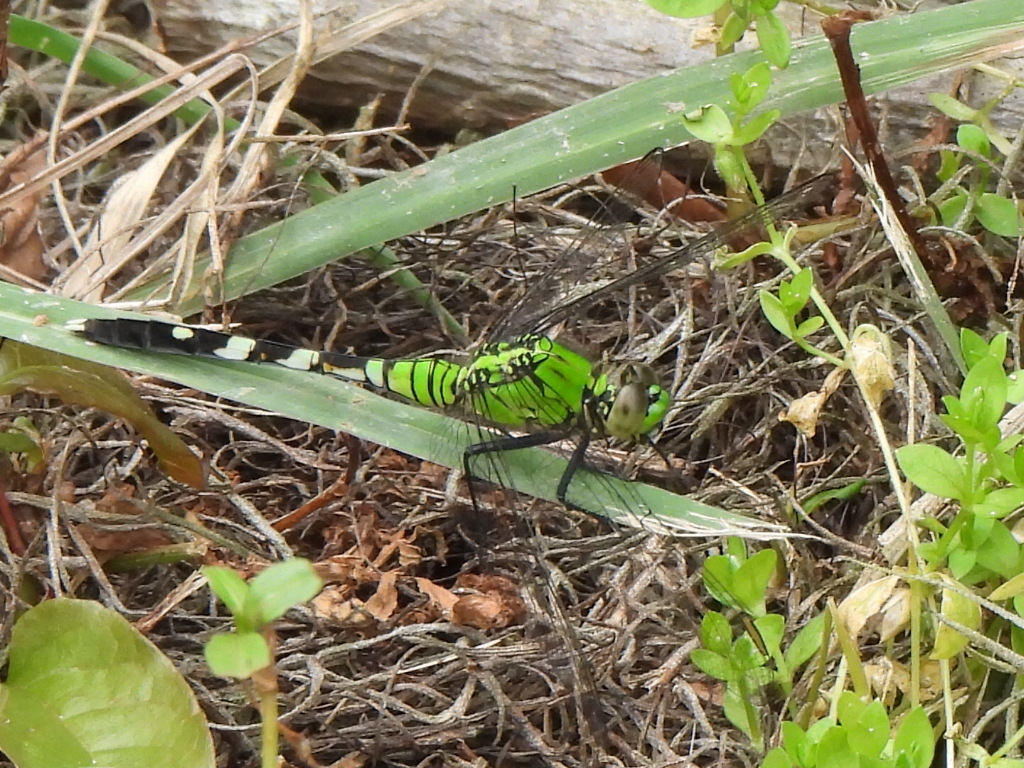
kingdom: Animalia
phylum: Arthropoda
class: Insecta
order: Odonata
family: Libellulidae
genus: Erythemis
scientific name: Erythemis simplicicollis
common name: Eastern pondhawk
